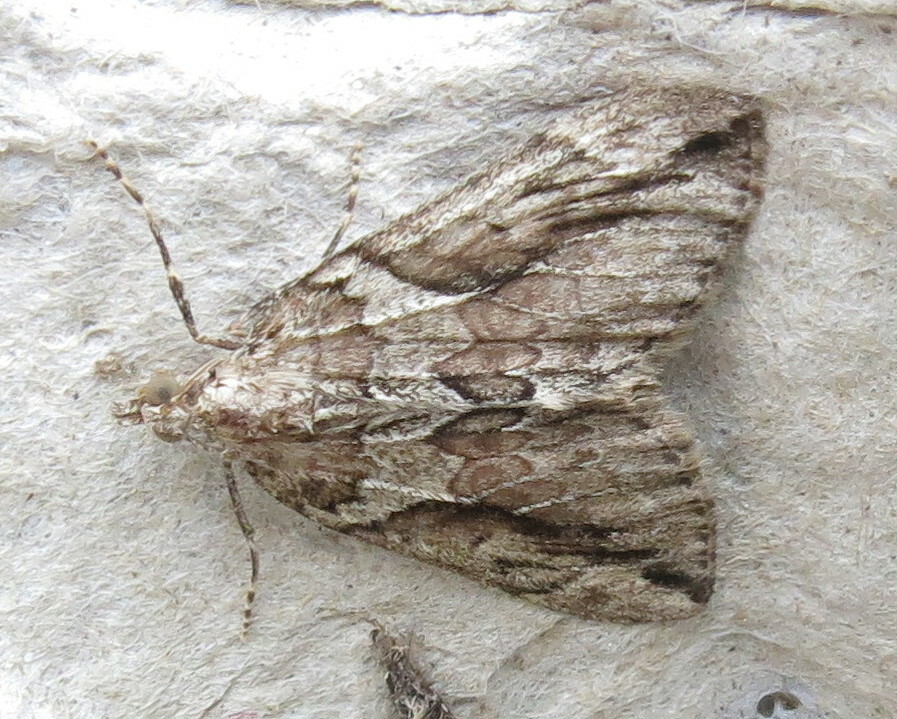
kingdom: Animalia
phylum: Arthropoda
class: Insecta
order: Lepidoptera
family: Geometridae
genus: Thera
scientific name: Thera cupressata
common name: Cypress carpet
